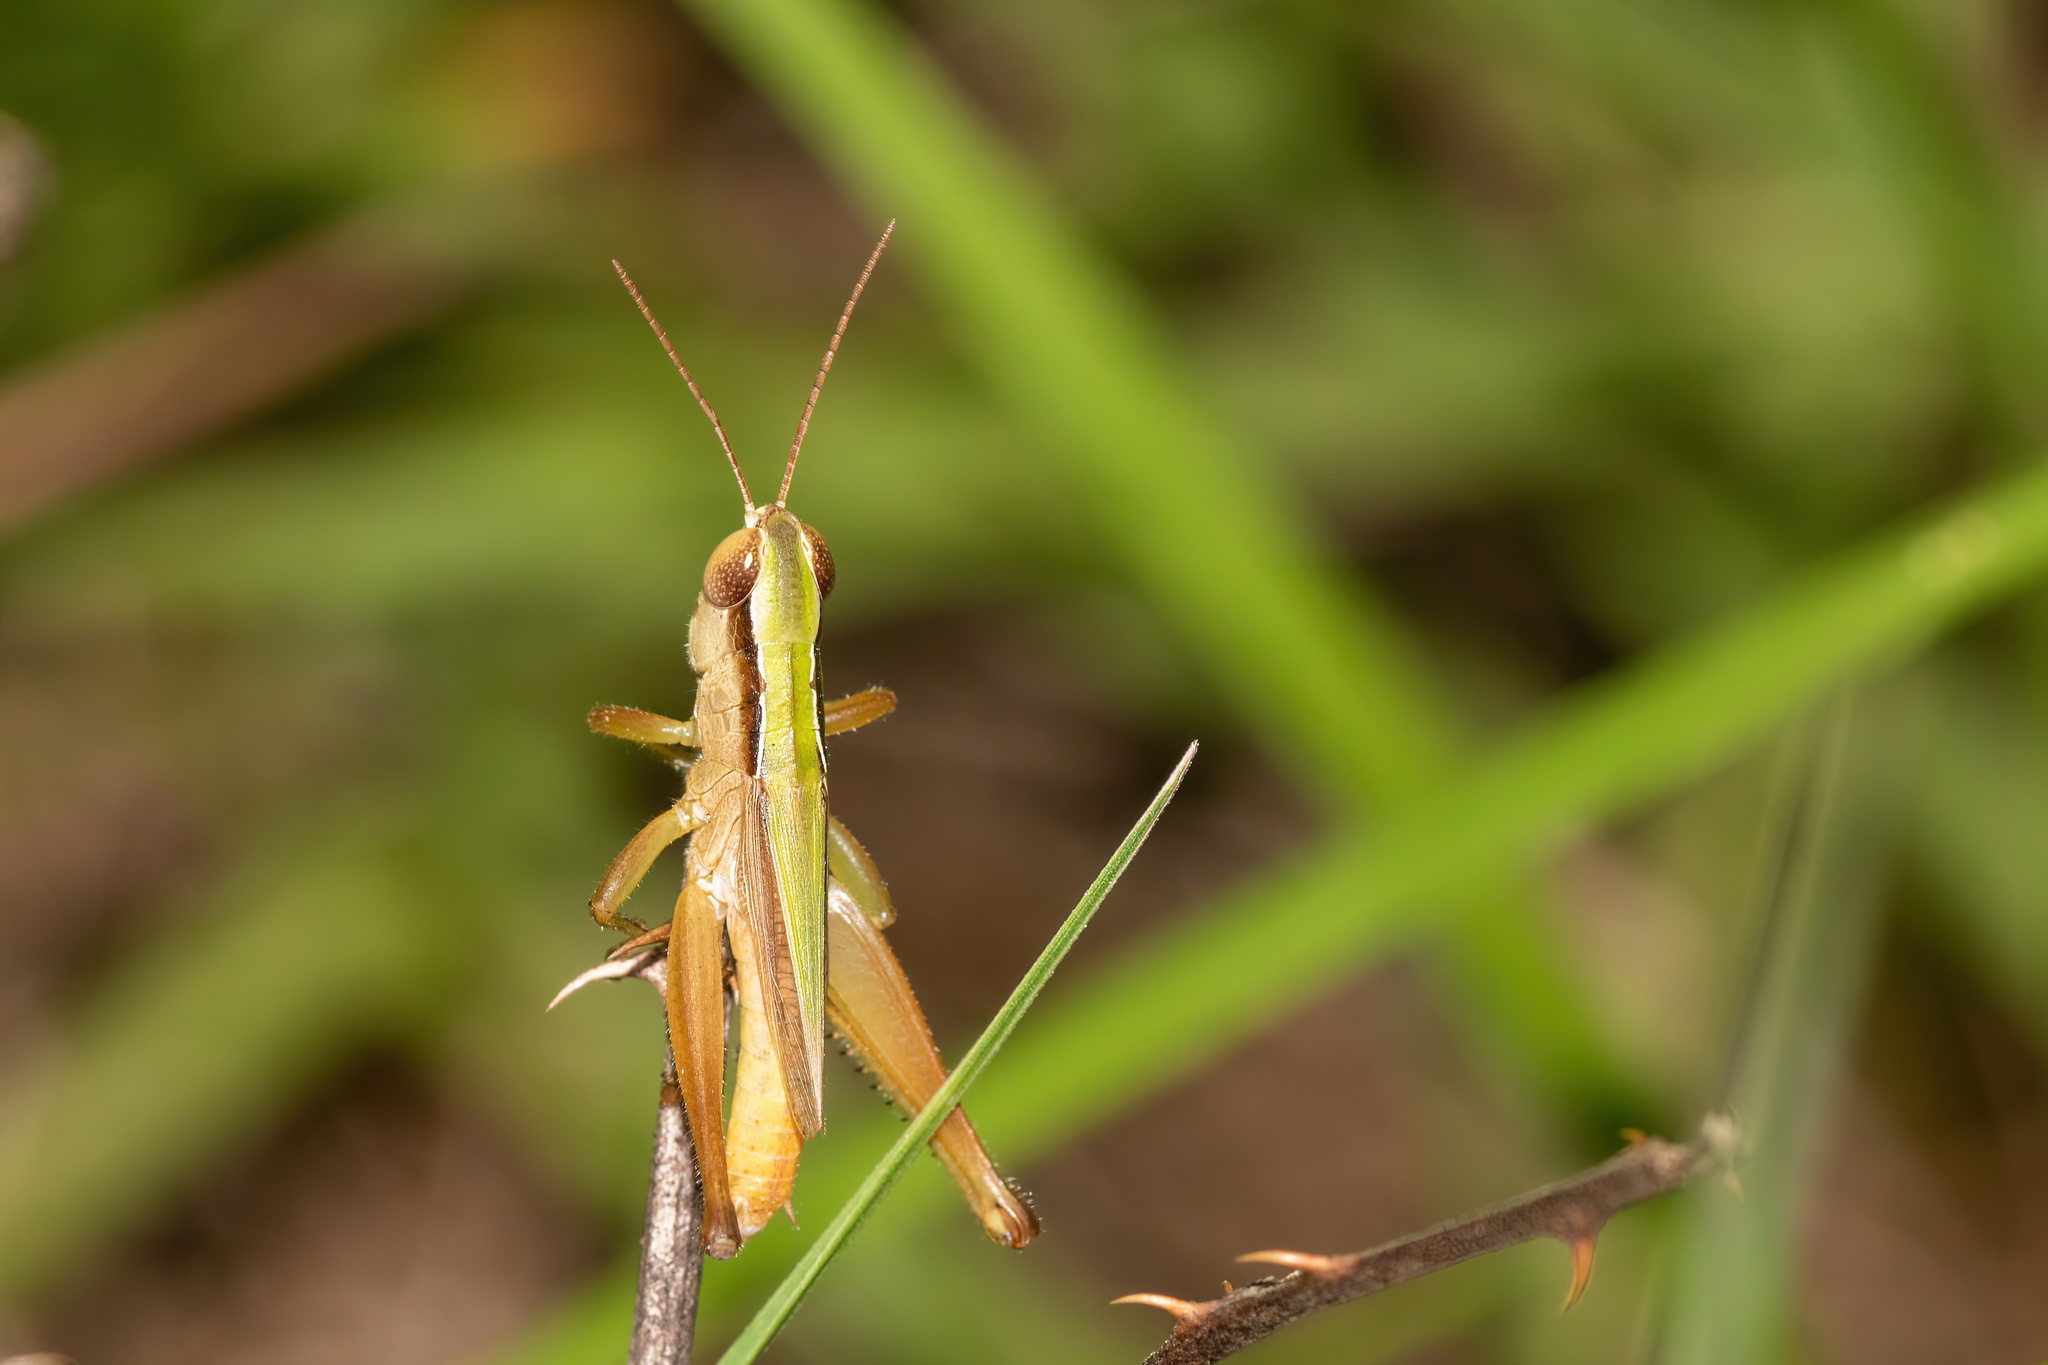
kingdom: Animalia
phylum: Arthropoda
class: Insecta
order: Orthoptera
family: Acrididae
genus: Dichromorpha
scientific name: Dichromorpha elegans
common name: Elegant grasshopper
